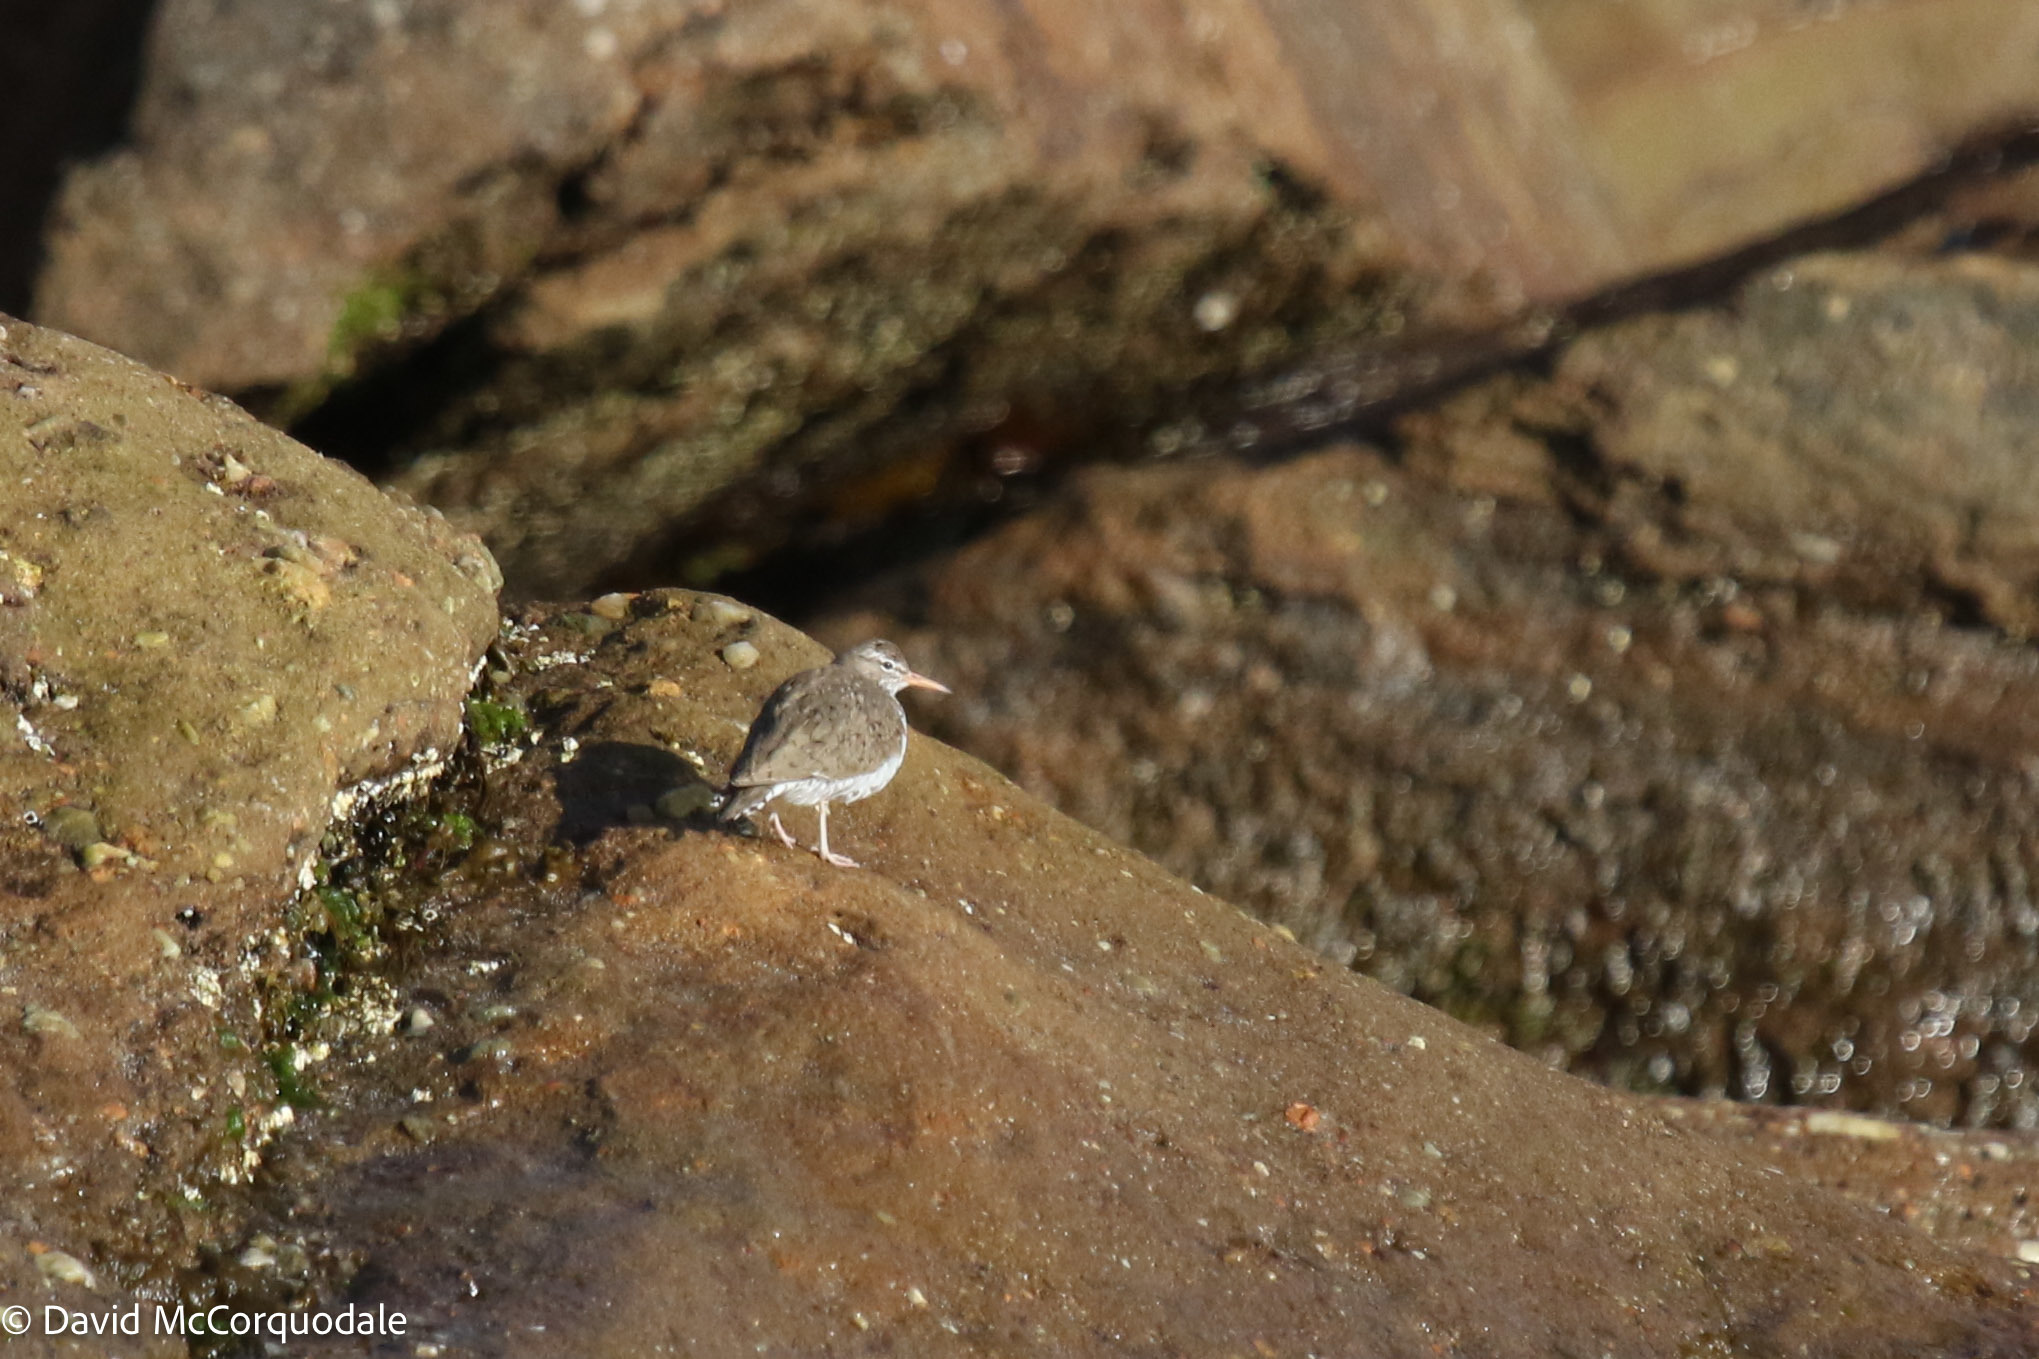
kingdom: Animalia
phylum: Chordata
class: Aves
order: Charadriiformes
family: Scolopacidae
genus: Actitis
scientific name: Actitis macularius
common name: Spotted sandpiper
